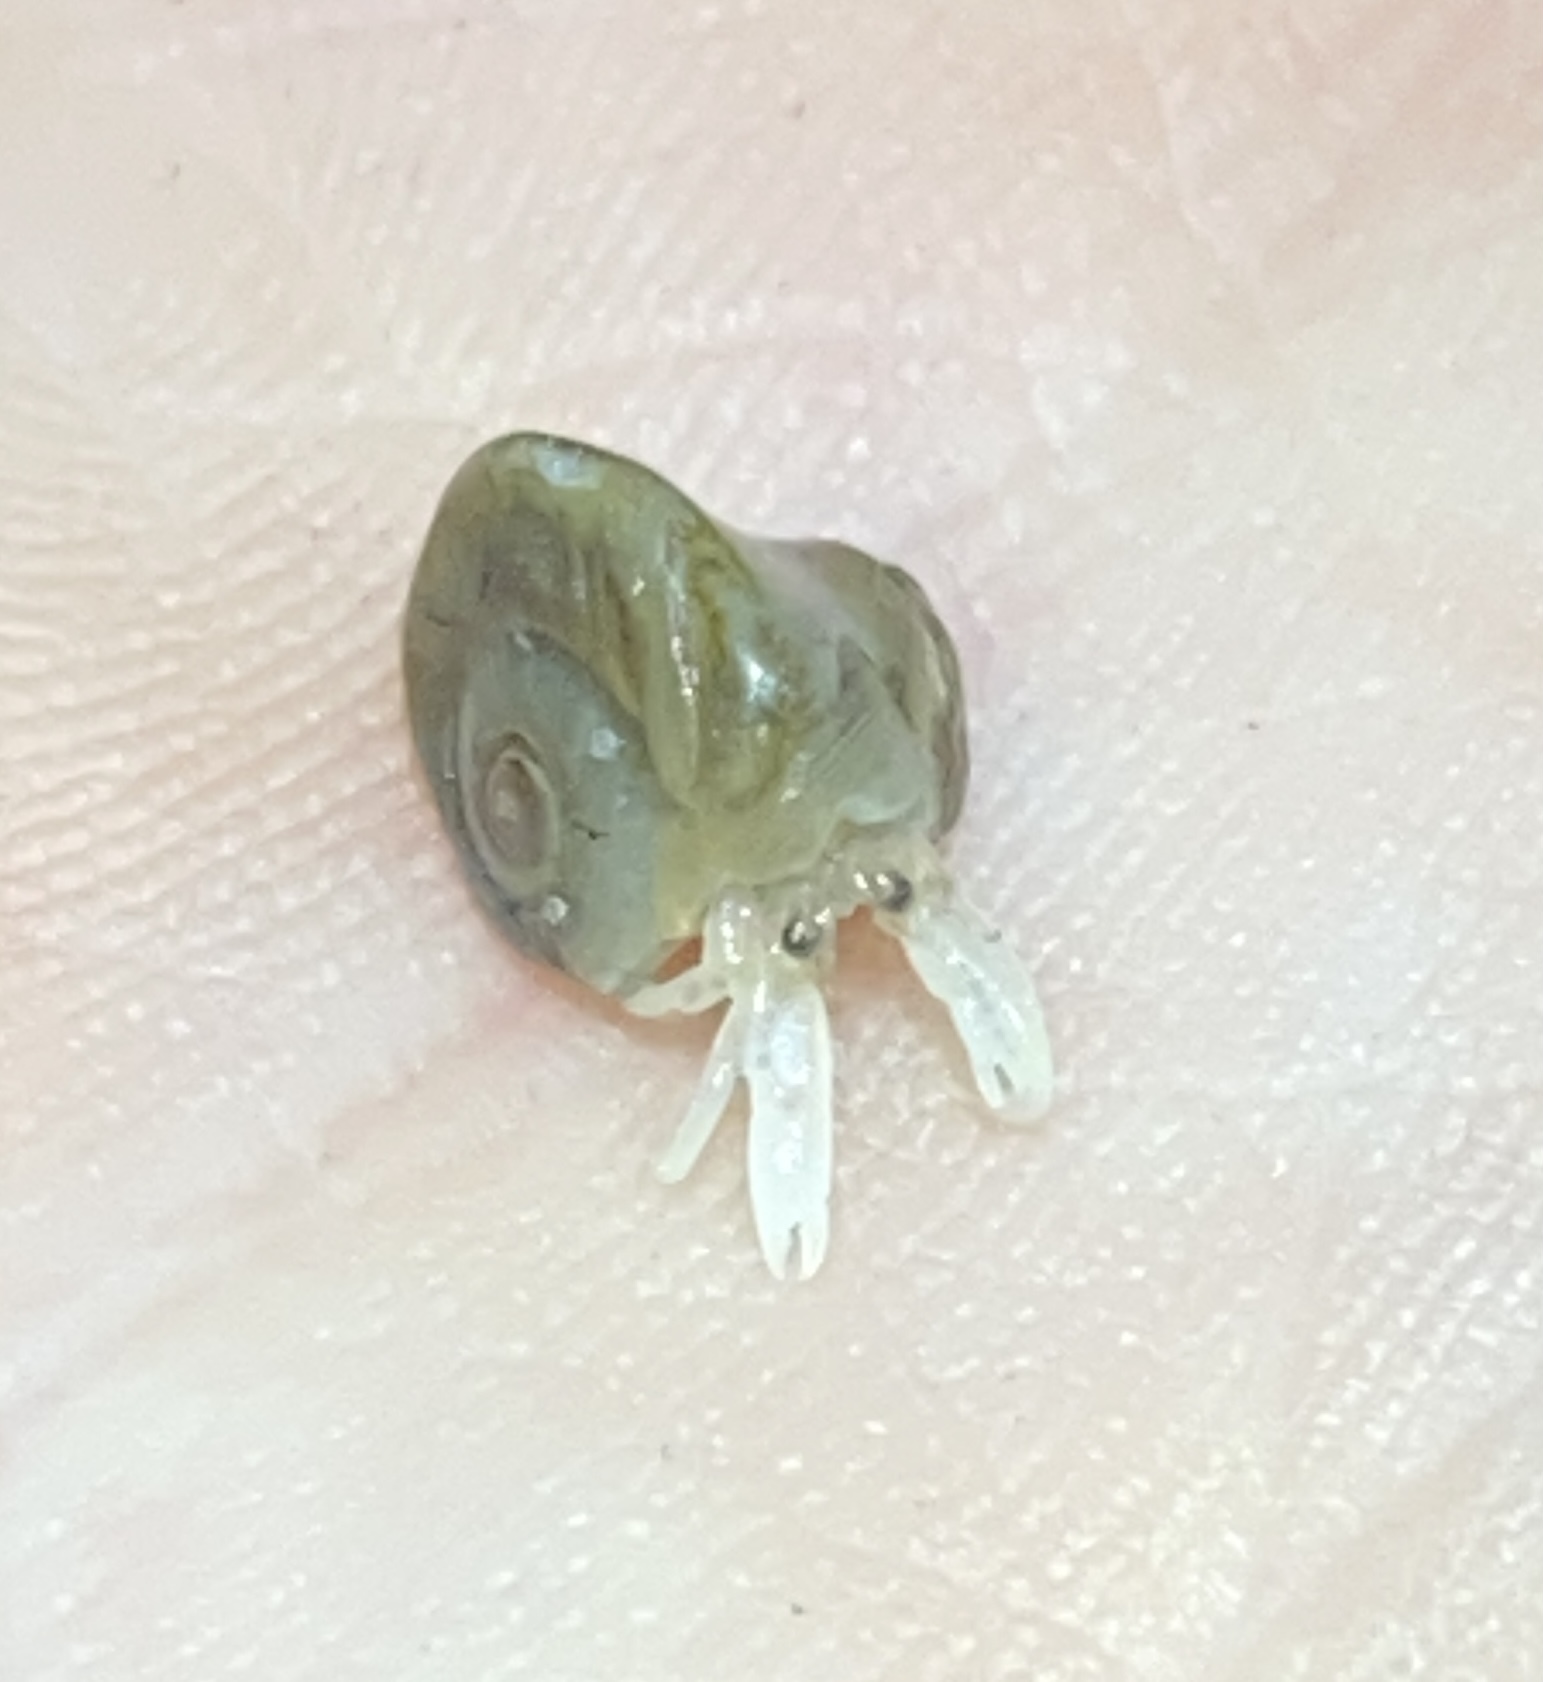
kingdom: Animalia
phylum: Mollusca
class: Gastropoda
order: Littorinimorpha
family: Naticidae
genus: Neverita
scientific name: Neverita duplicata
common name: Lobed moonsnail
